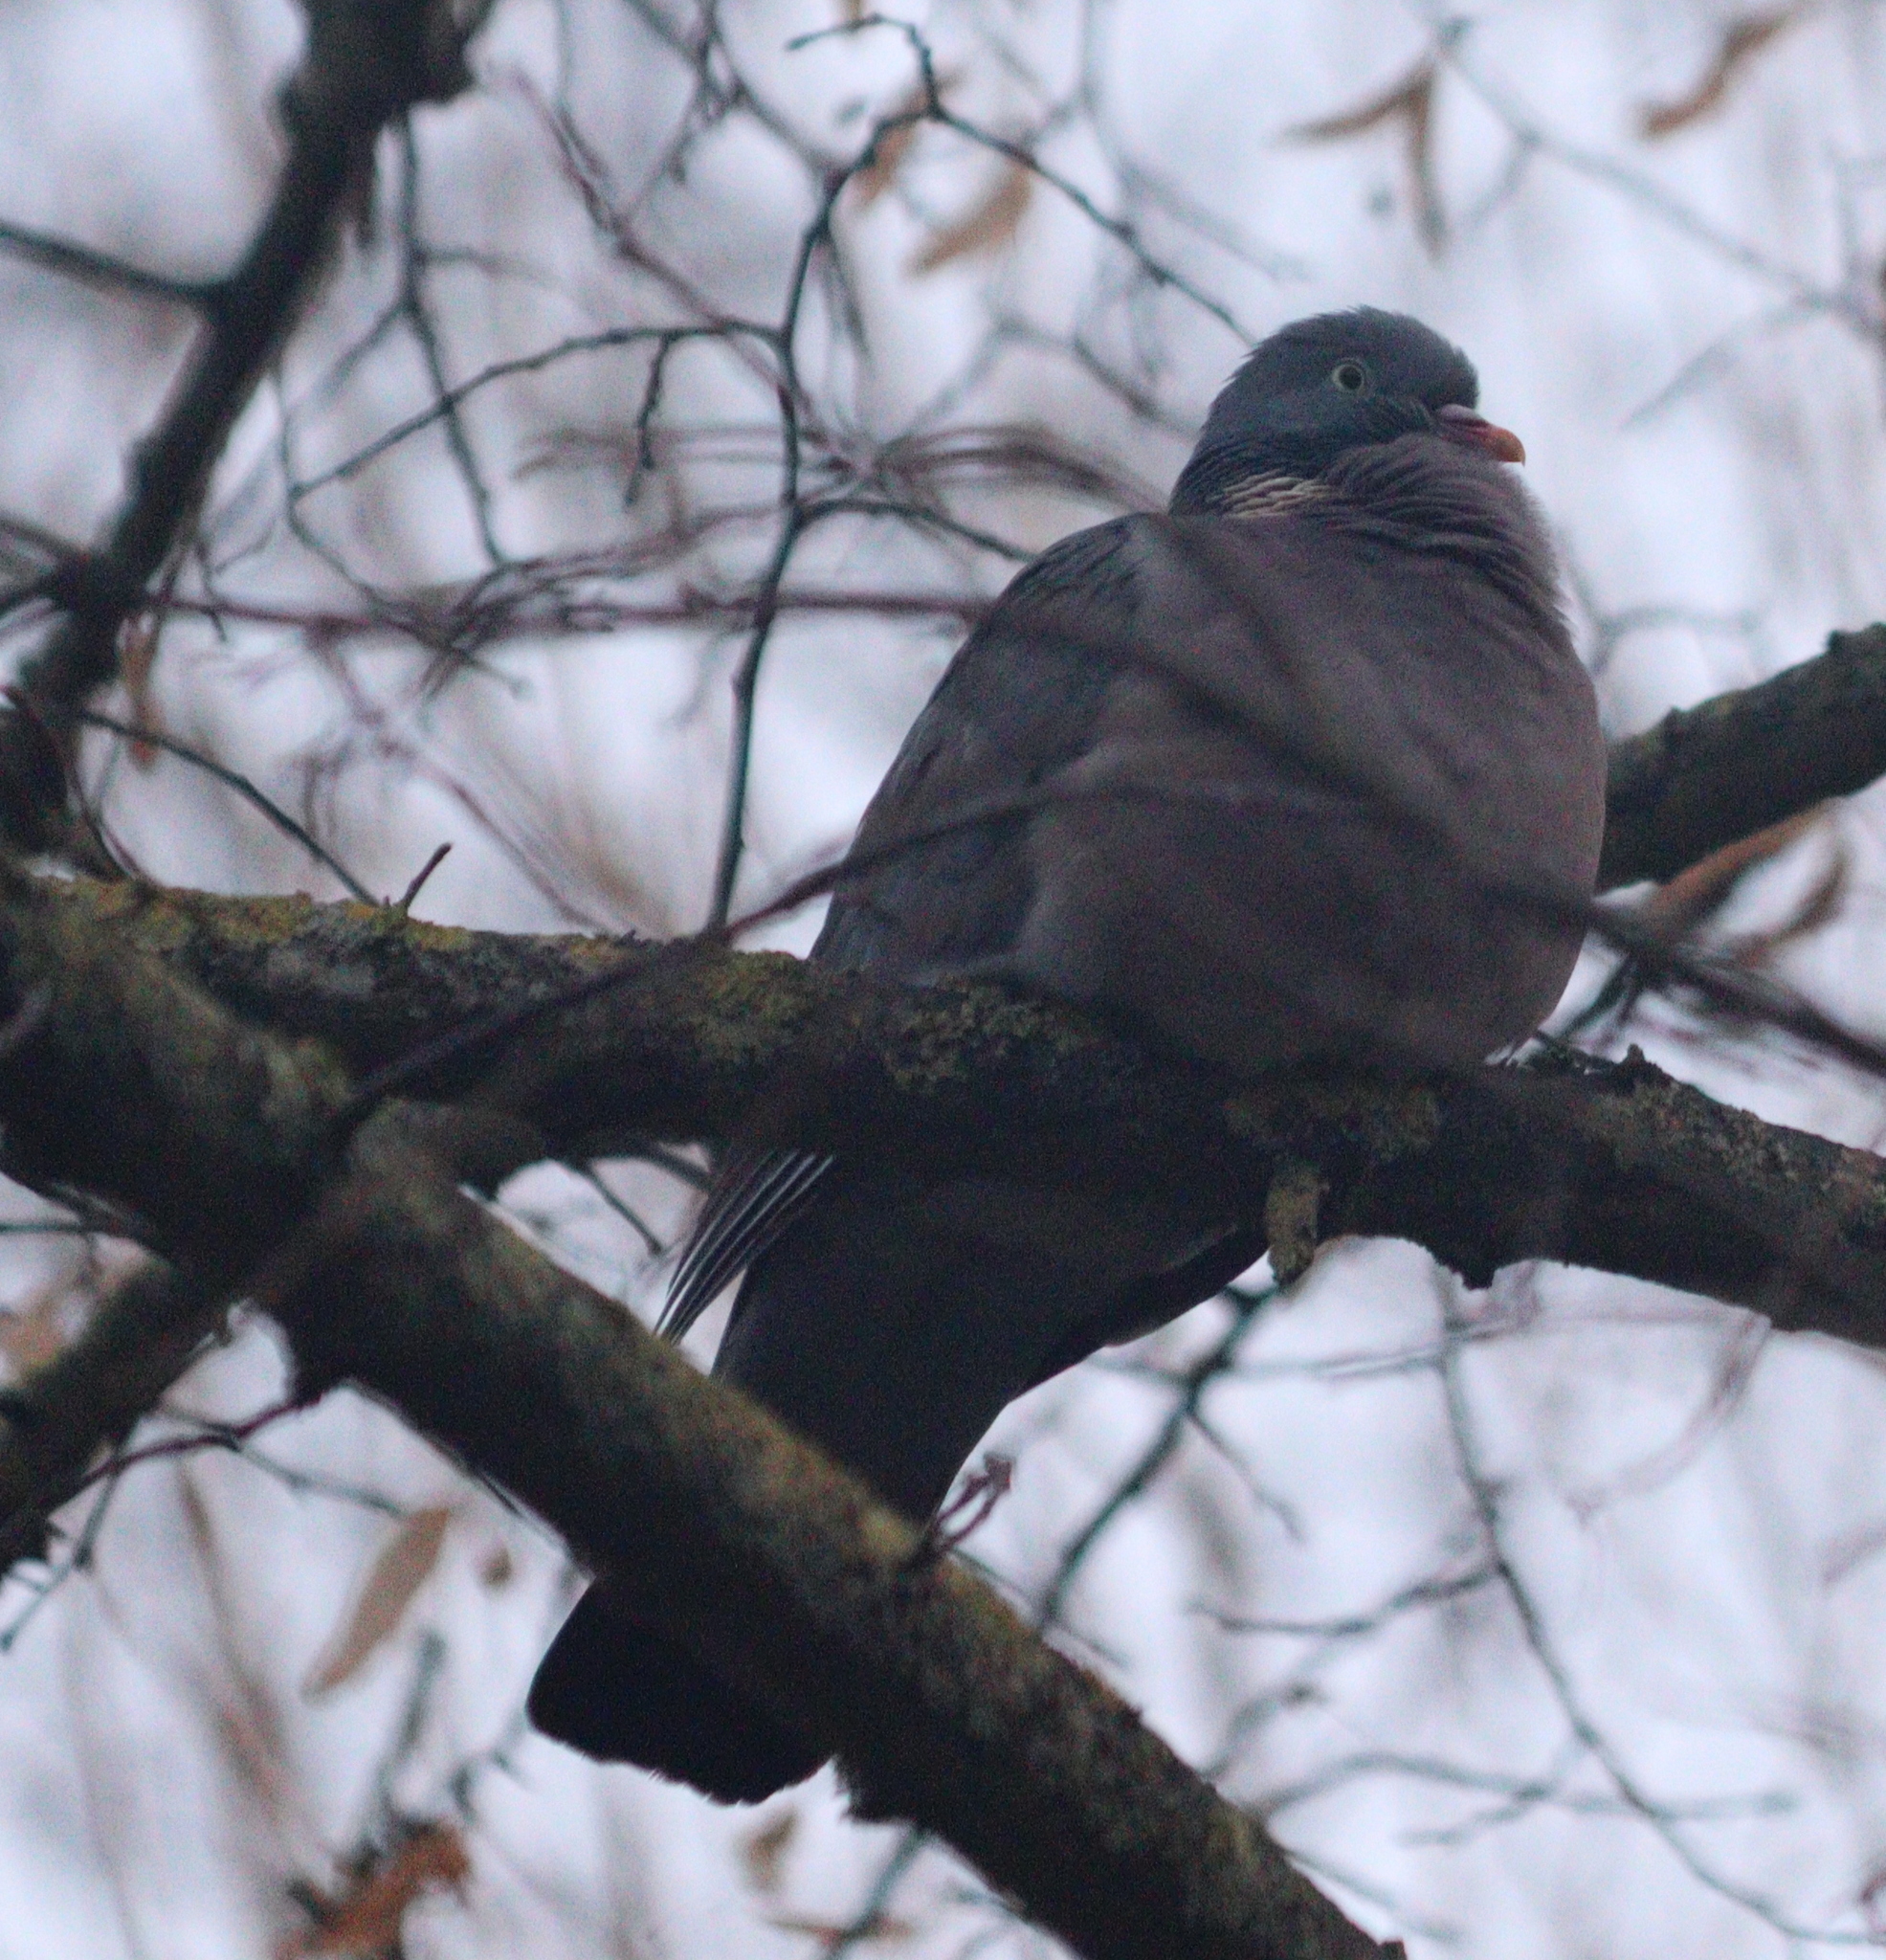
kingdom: Animalia
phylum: Chordata
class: Aves
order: Columbiformes
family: Columbidae
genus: Columba
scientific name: Columba palumbus
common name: Common wood pigeon
